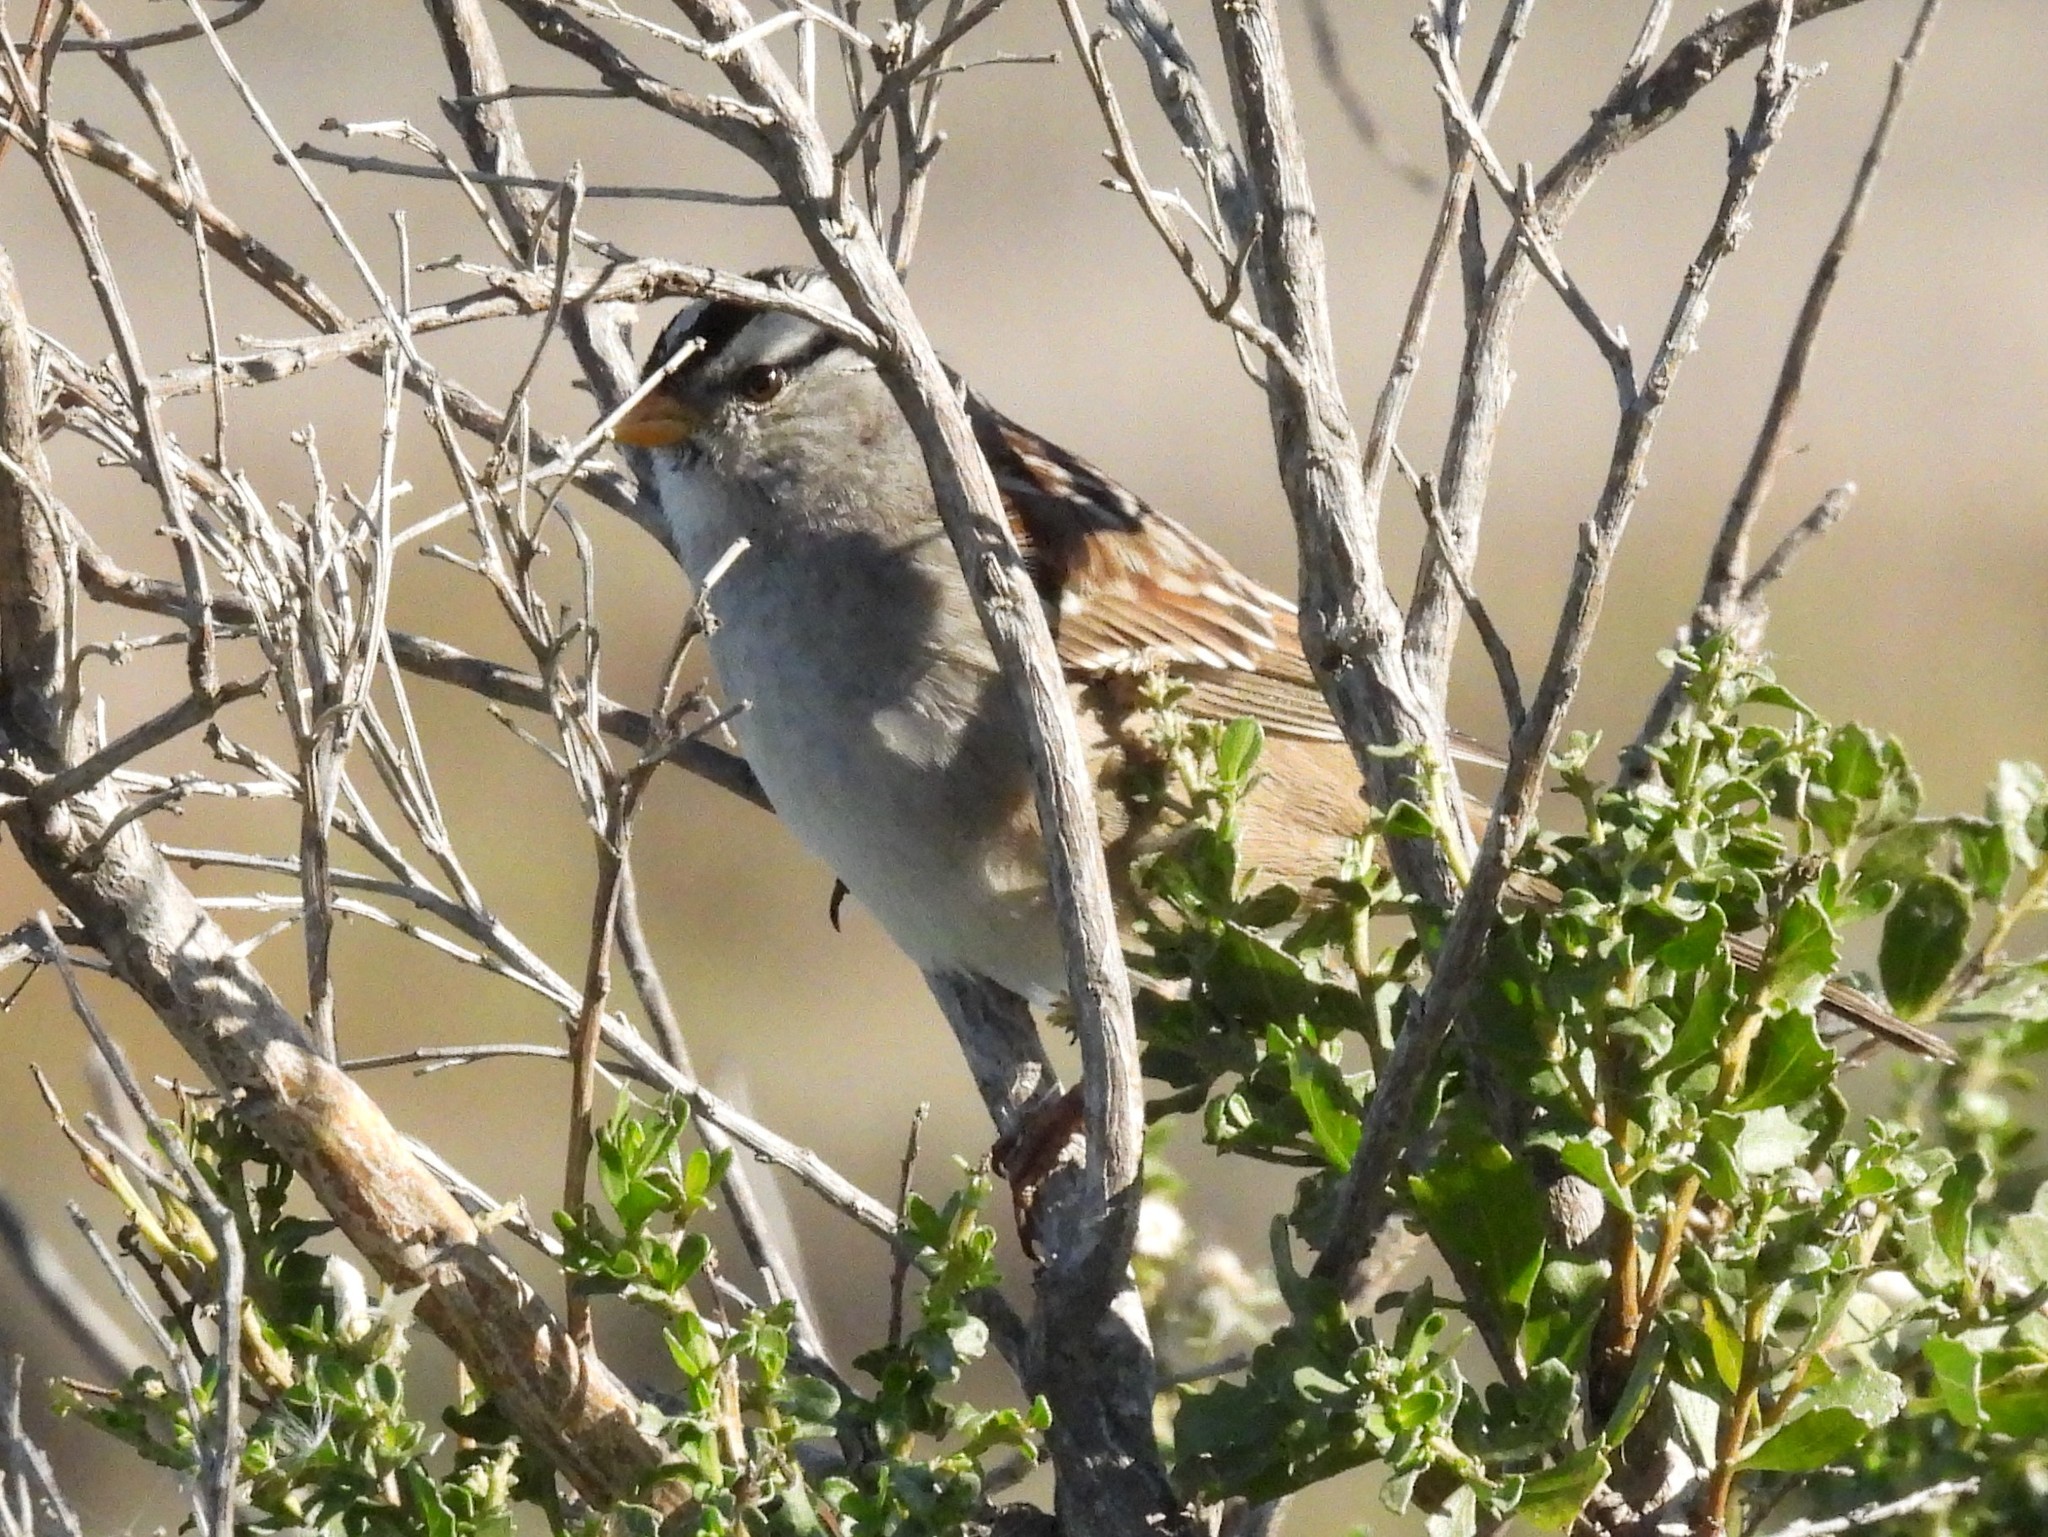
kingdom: Animalia
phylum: Chordata
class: Aves
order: Passeriformes
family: Passerellidae
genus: Zonotrichia
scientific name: Zonotrichia leucophrys
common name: White-crowned sparrow
